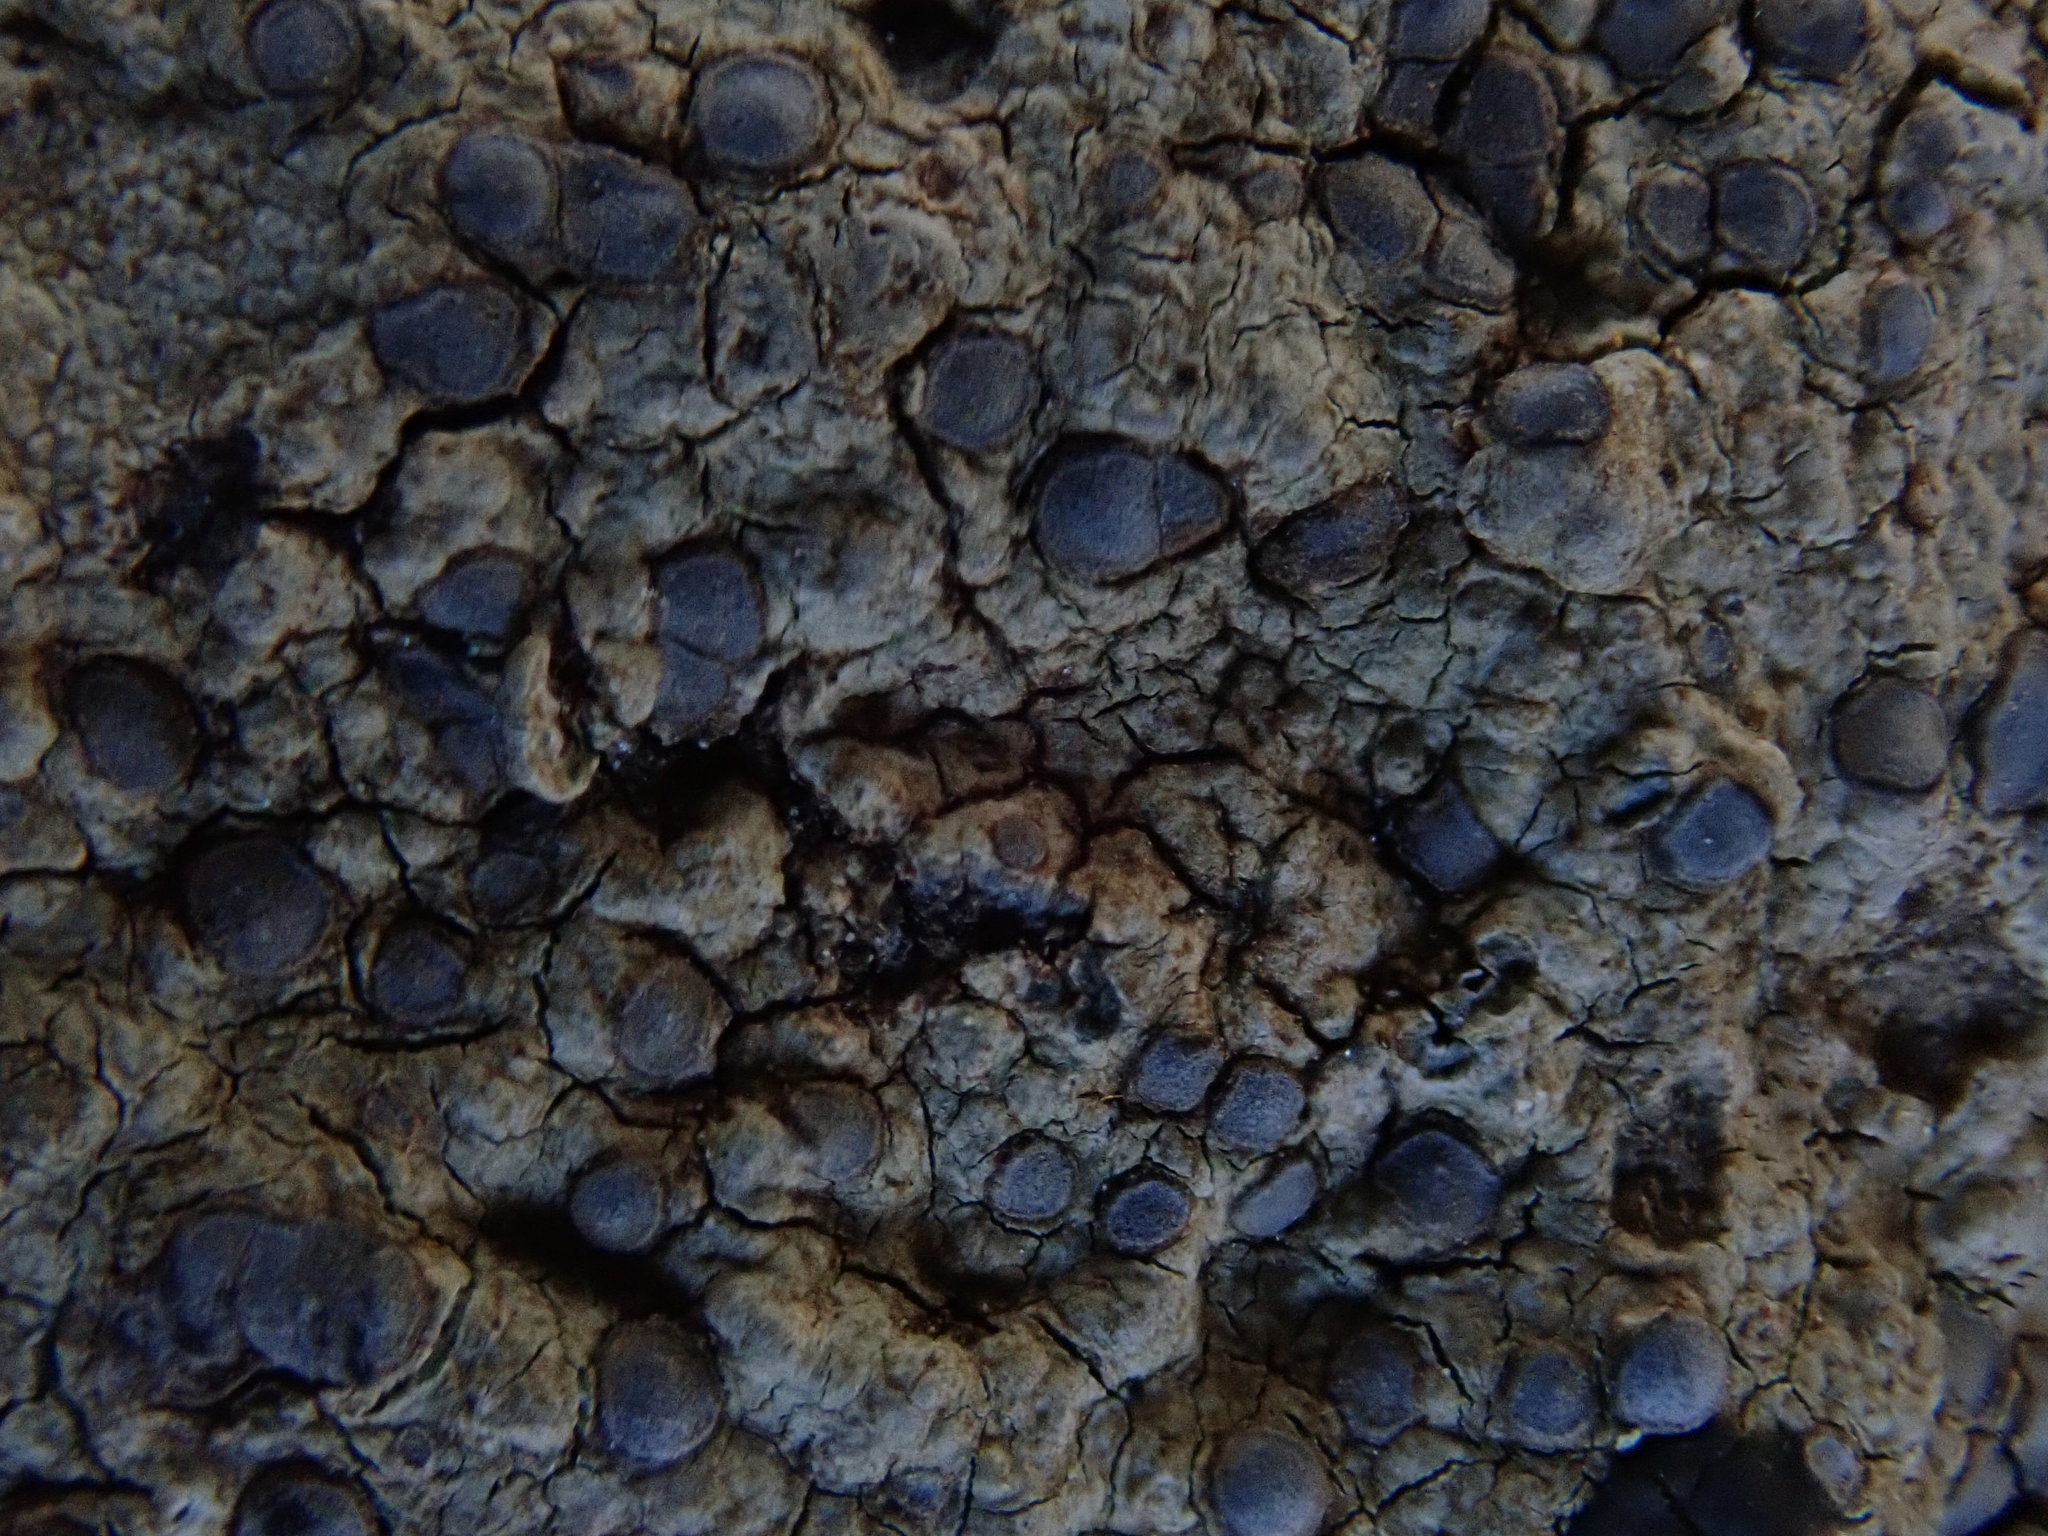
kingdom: Fungi
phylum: Ascomycota
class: Lecanoromycetes
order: Lecideales
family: Lecideaceae
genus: Porpidia
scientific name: Porpidia albocaerulescens
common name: Smokey-eyed boulder lichen
